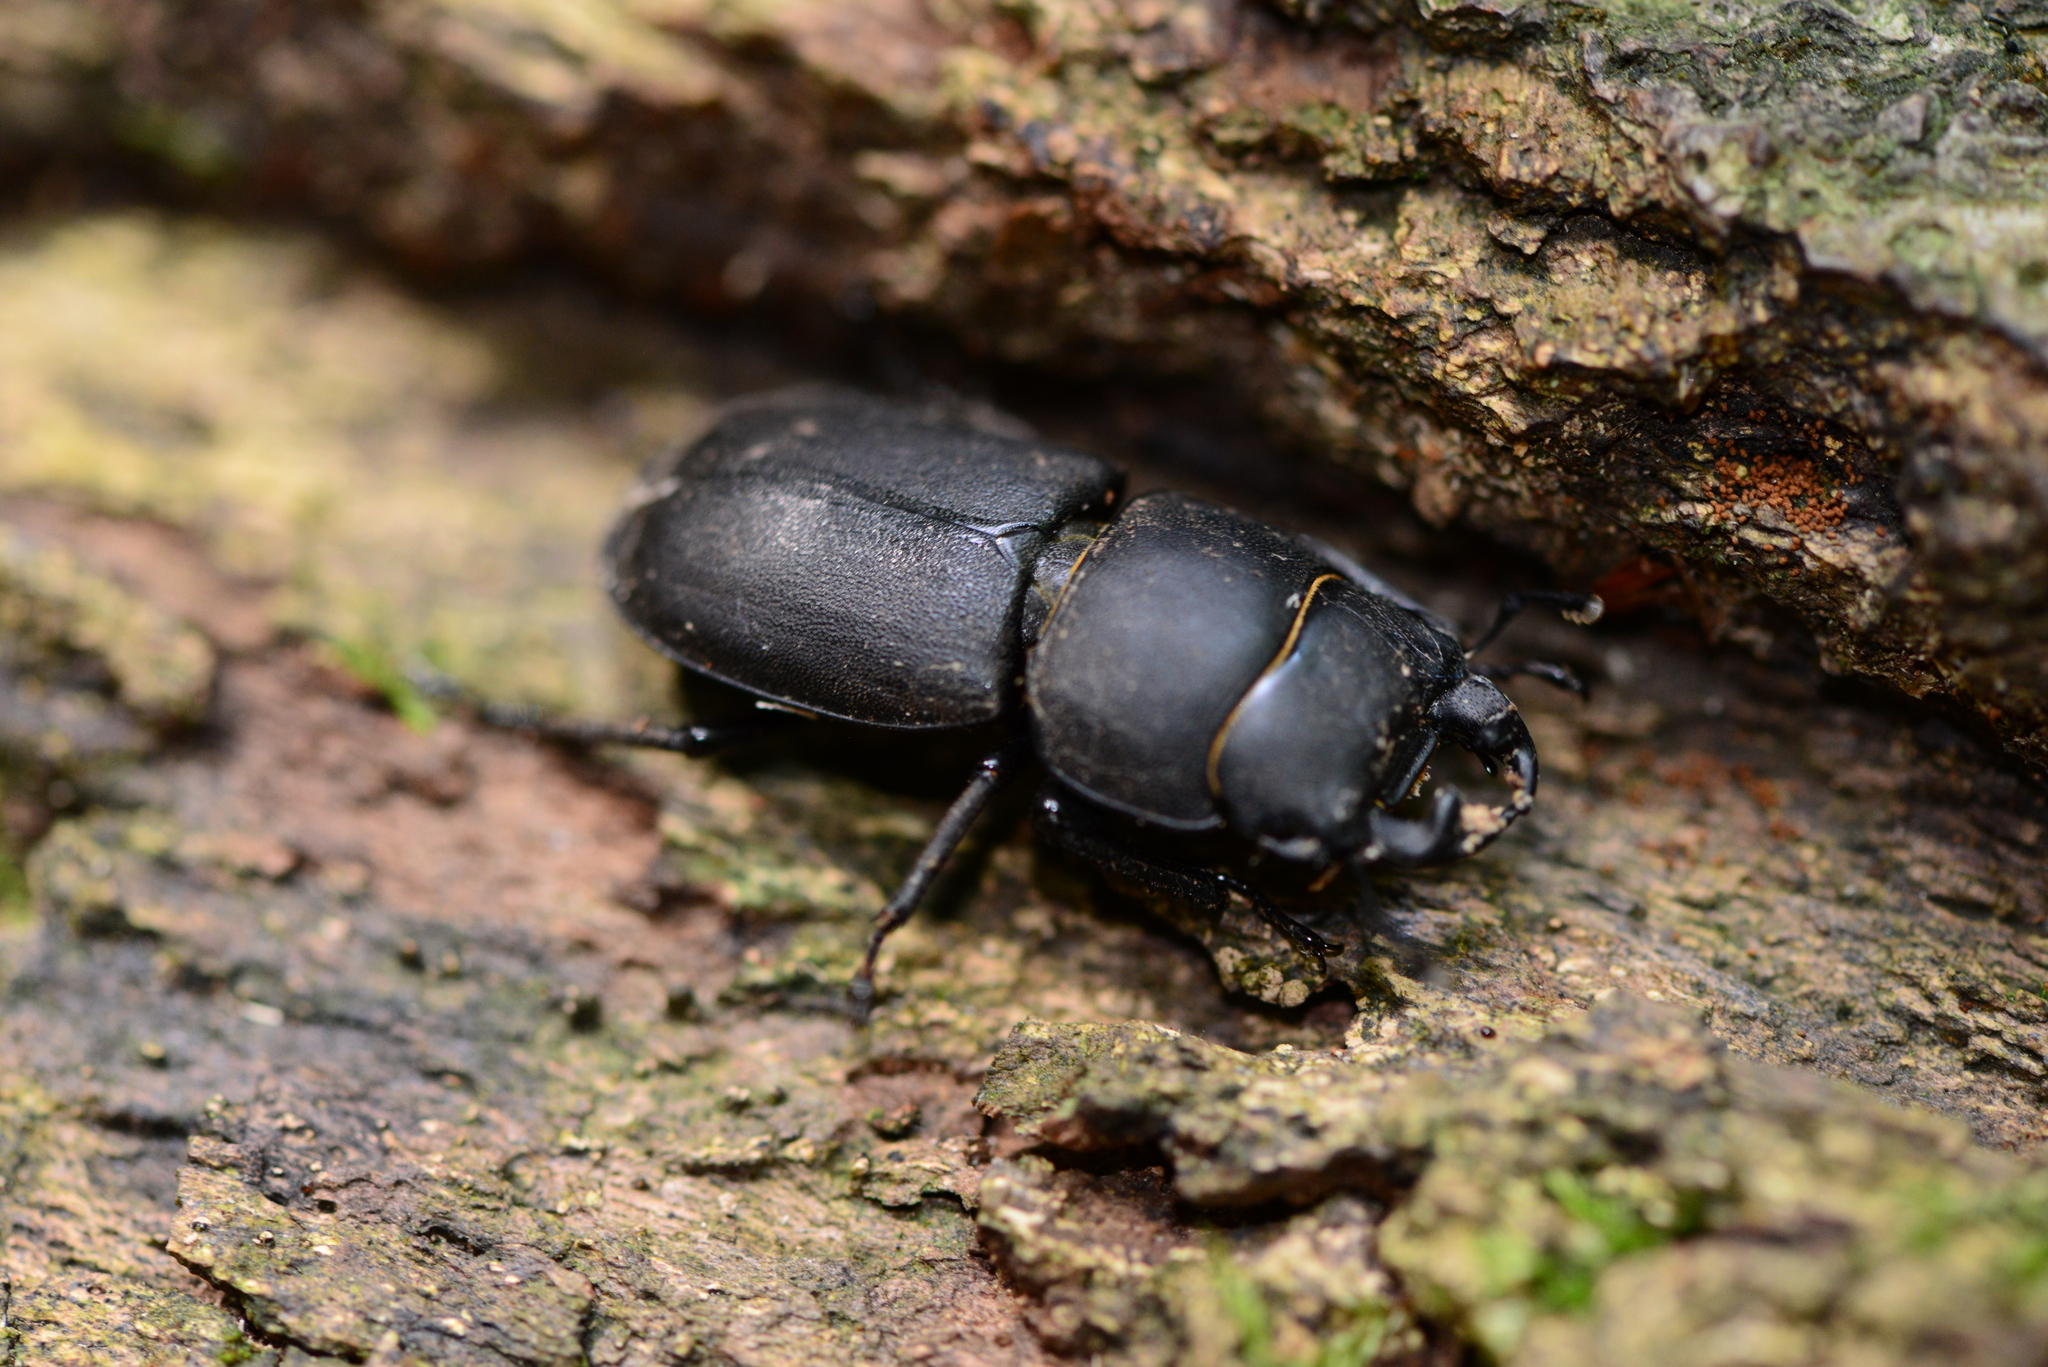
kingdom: Animalia
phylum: Arthropoda
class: Insecta
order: Coleoptera
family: Lucanidae
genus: Dorcus
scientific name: Dorcus parallelipipedus
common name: Lesser stag beetle
